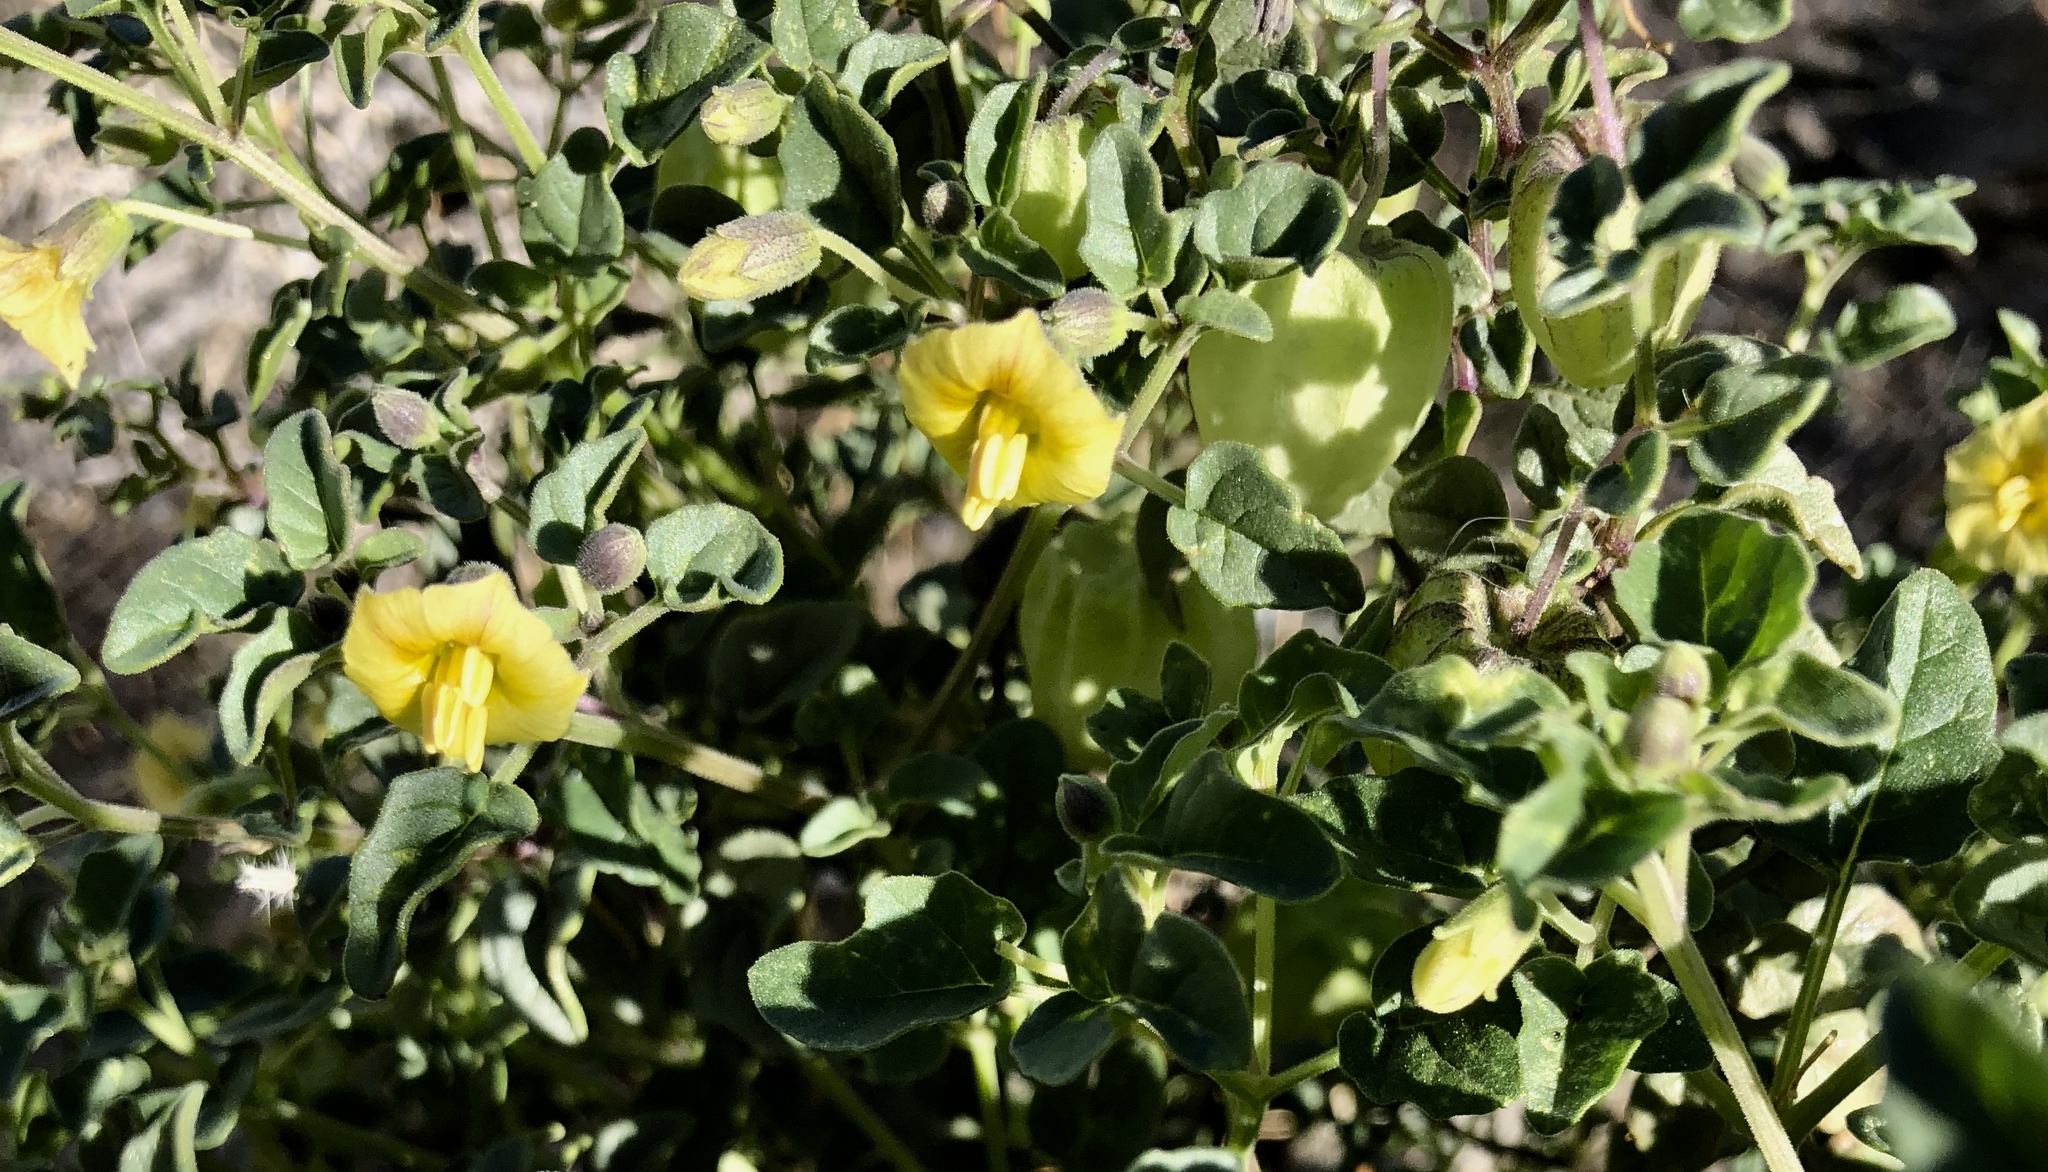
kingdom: Plantae
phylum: Tracheophyta
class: Magnoliopsida
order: Solanales
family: Solanaceae
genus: Physalis
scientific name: Physalis crassifolia
